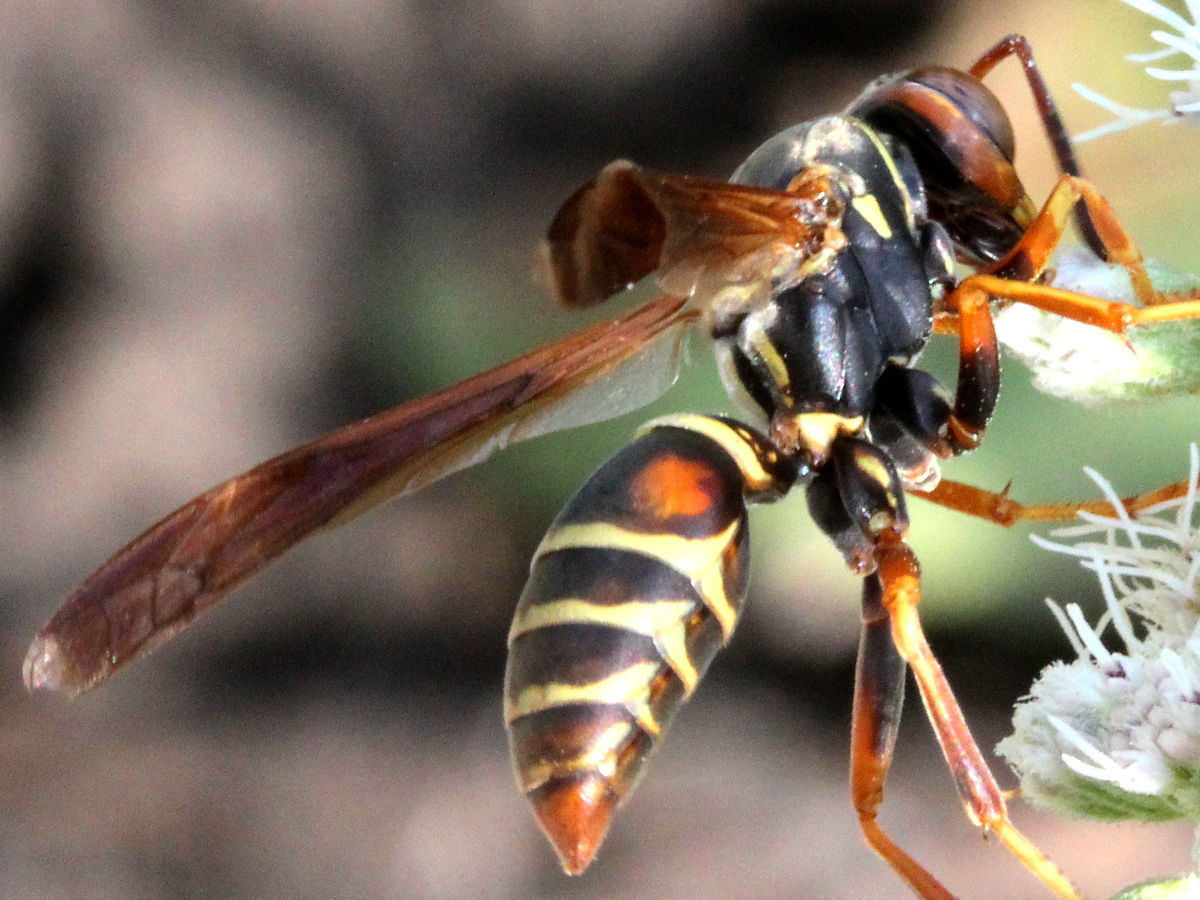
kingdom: Animalia
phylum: Arthropoda
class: Insecta
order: Hymenoptera
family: Eumenidae
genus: Polistes
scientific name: Polistes fuscatus
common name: Dark paper wasp
